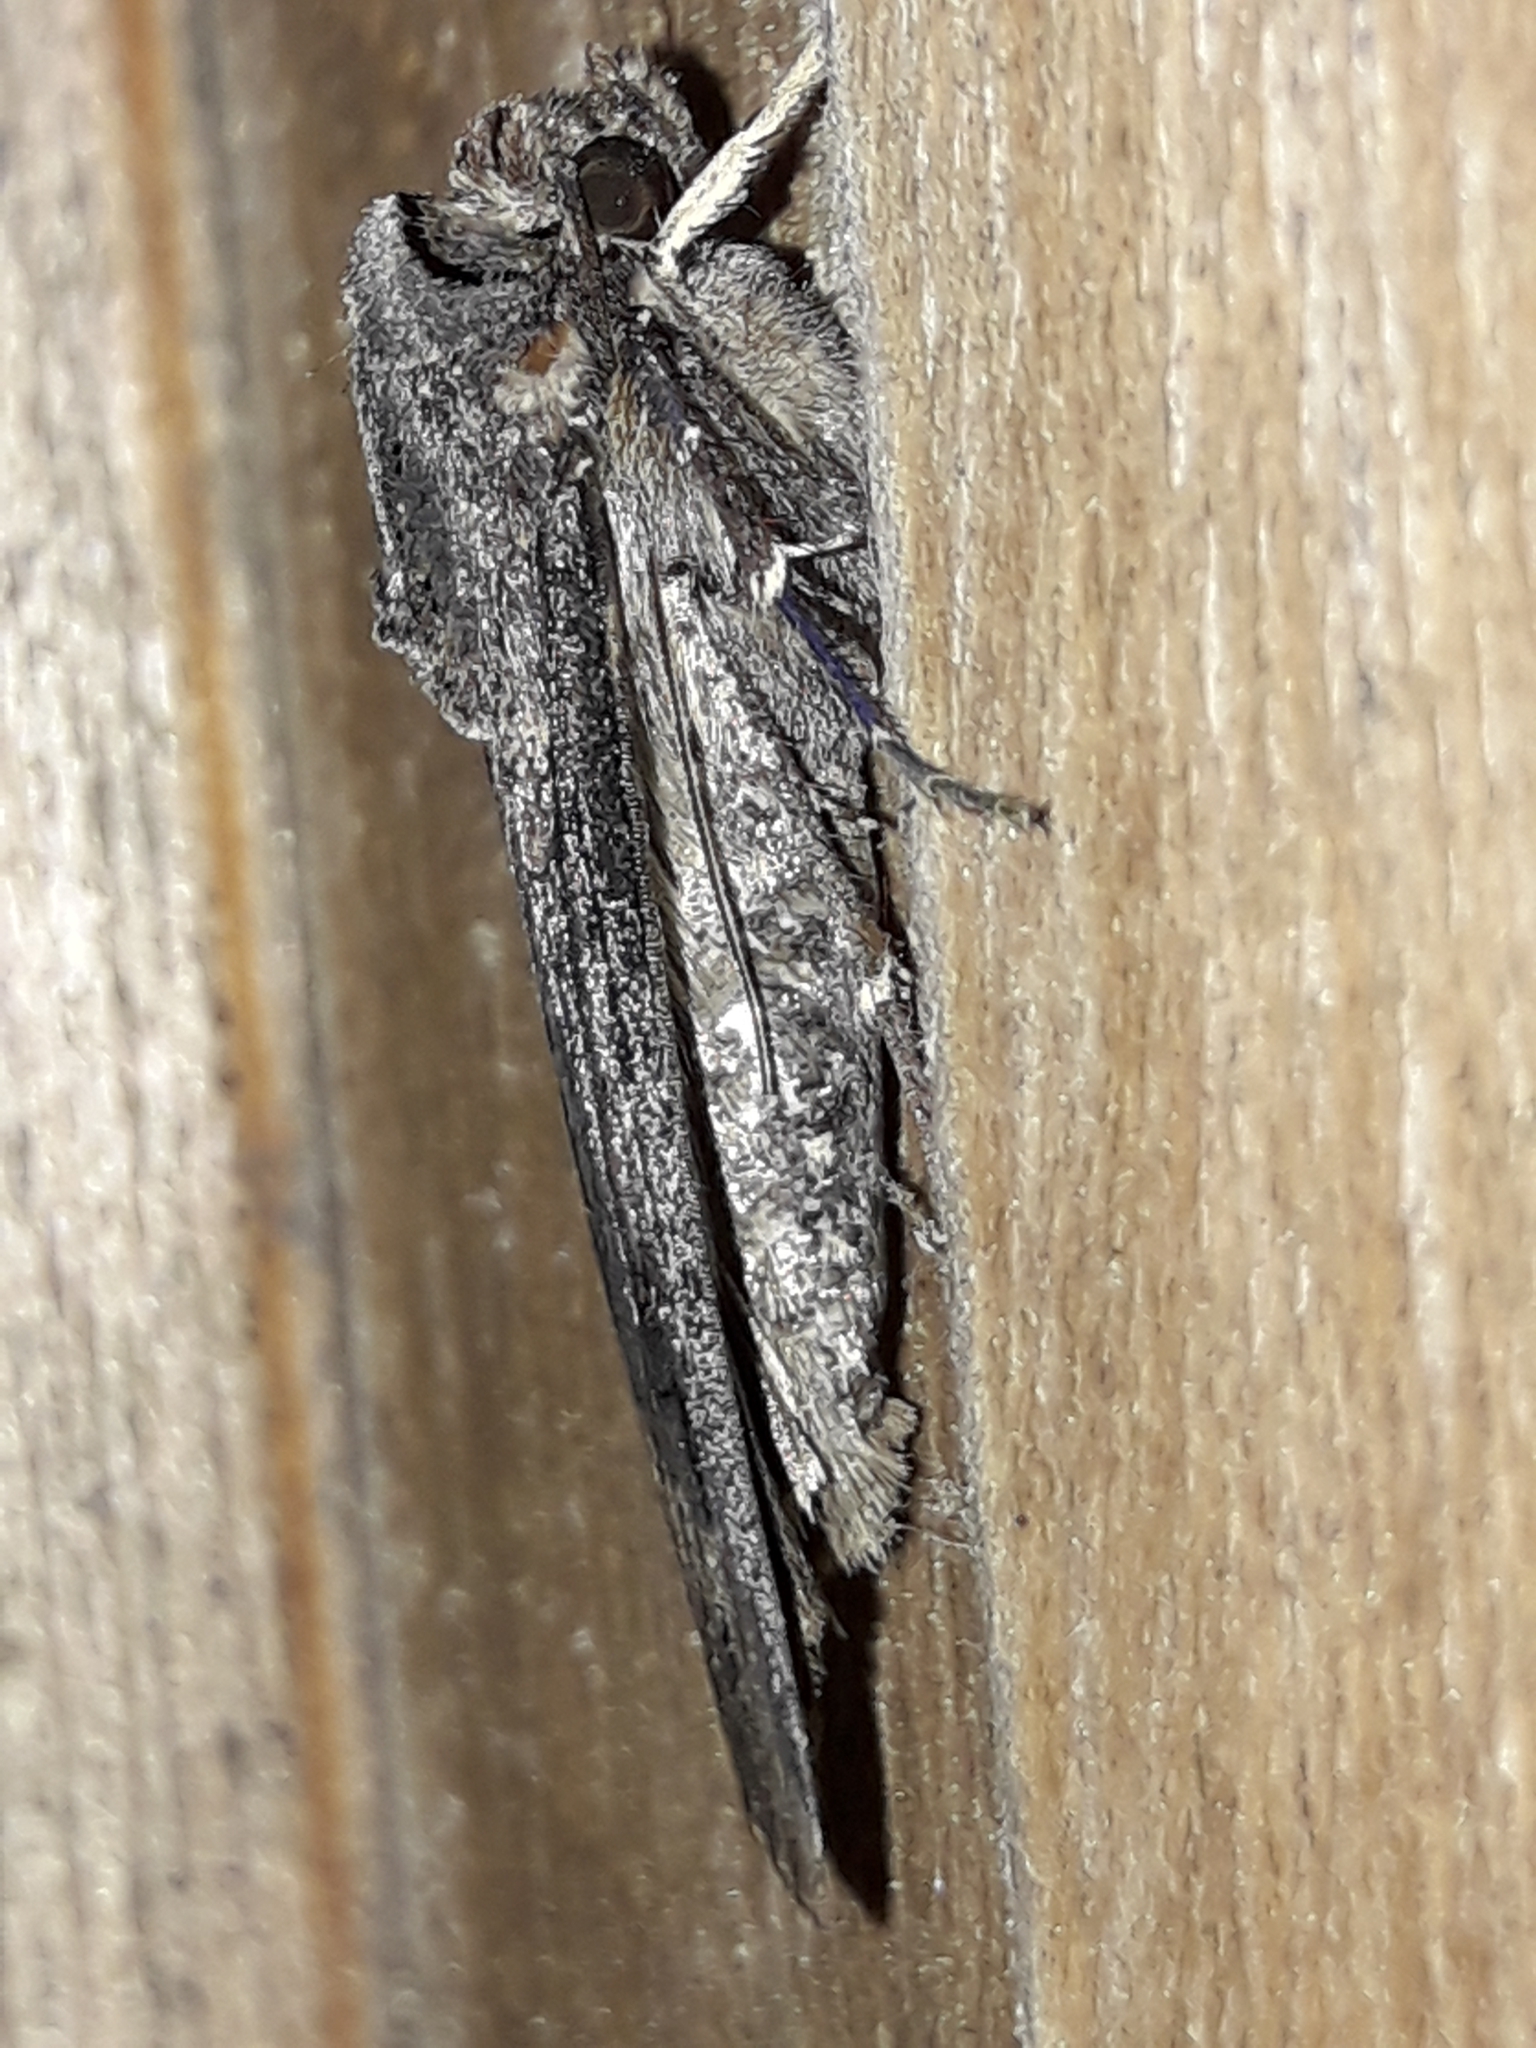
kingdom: Animalia
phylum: Arthropoda
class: Insecta
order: Lepidoptera
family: Noctuidae
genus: Agrotis
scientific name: Agrotis ipsilon
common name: Dark sword-grass
